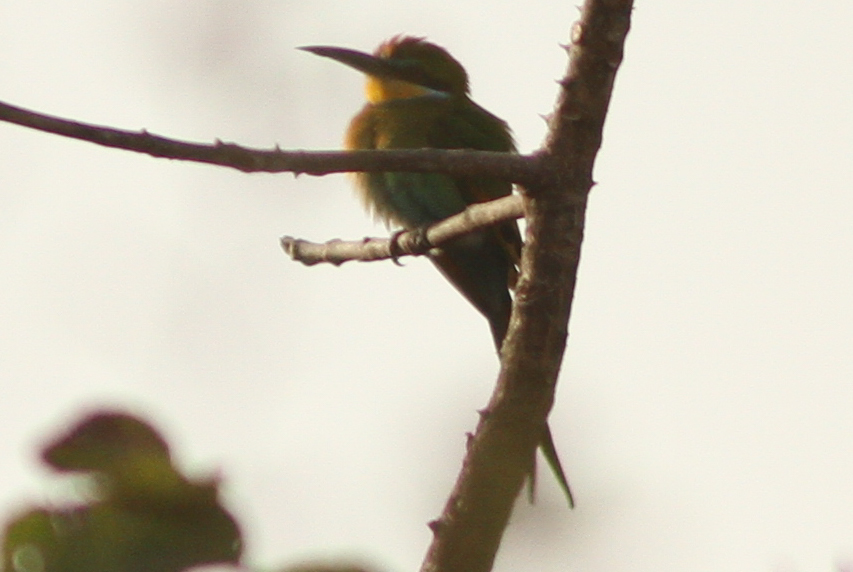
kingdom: Animalia
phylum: Chordata
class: Aves
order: Coraciiformes
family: Meropidae
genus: Merops
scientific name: Merops hirundineus
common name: Swallow-tailed bee-eater
